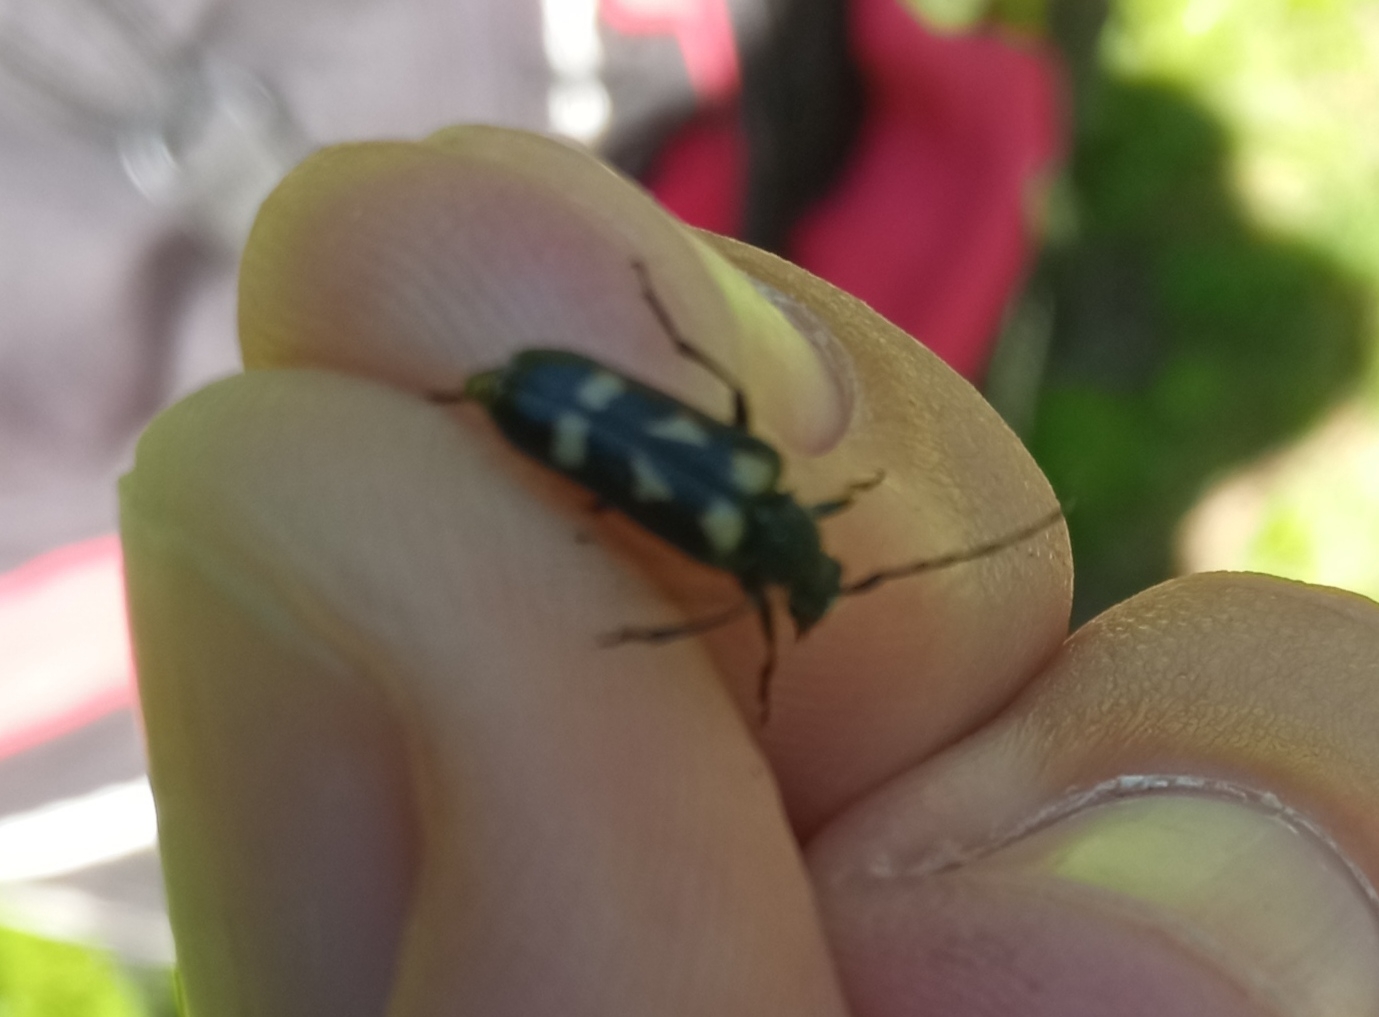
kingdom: Animalia
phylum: Arthropoda
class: Insecta
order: Coleoptera
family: Cerambycidae
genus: Judolia
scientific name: Judolia sexmaculata
